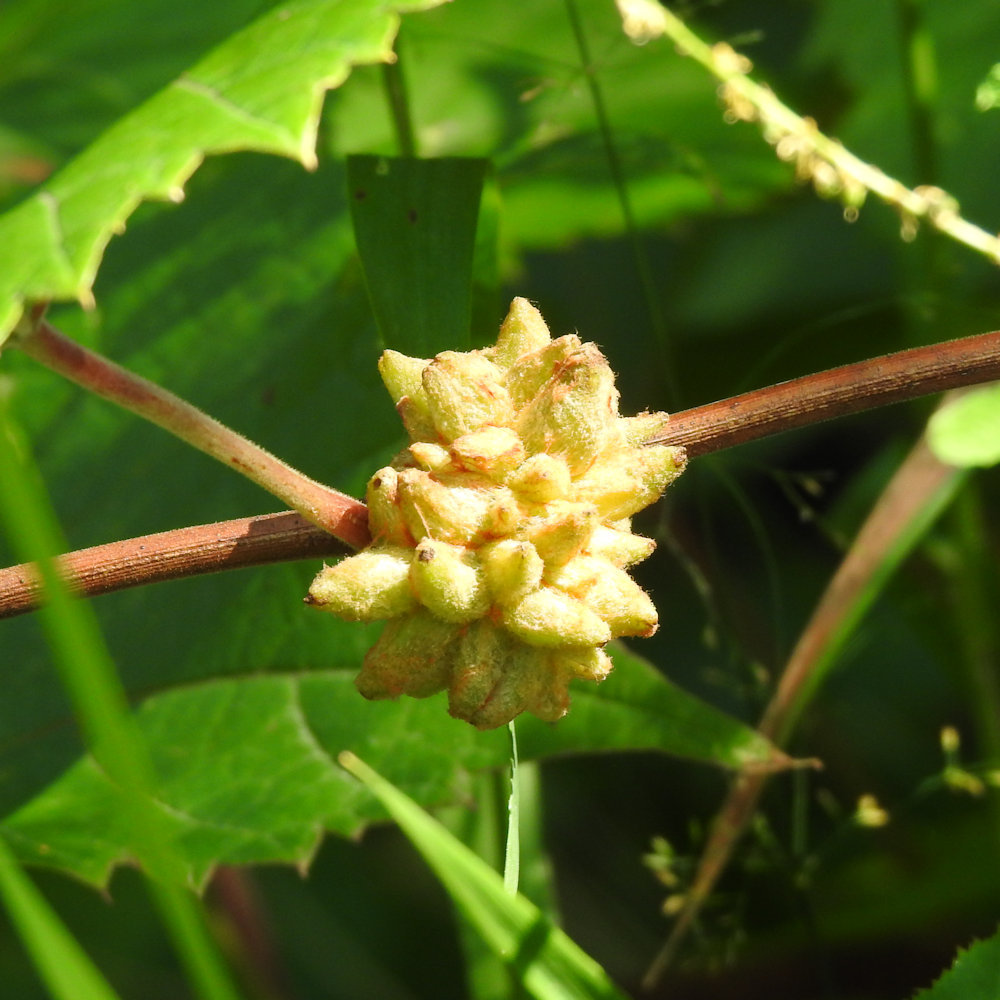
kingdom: Animalia
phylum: Arthropoda
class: Insecta
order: Diptera
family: Cecidomyiidae
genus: Ampelomyia
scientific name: Ampelomyia vitiscoryloides
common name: Grape filbert gall
